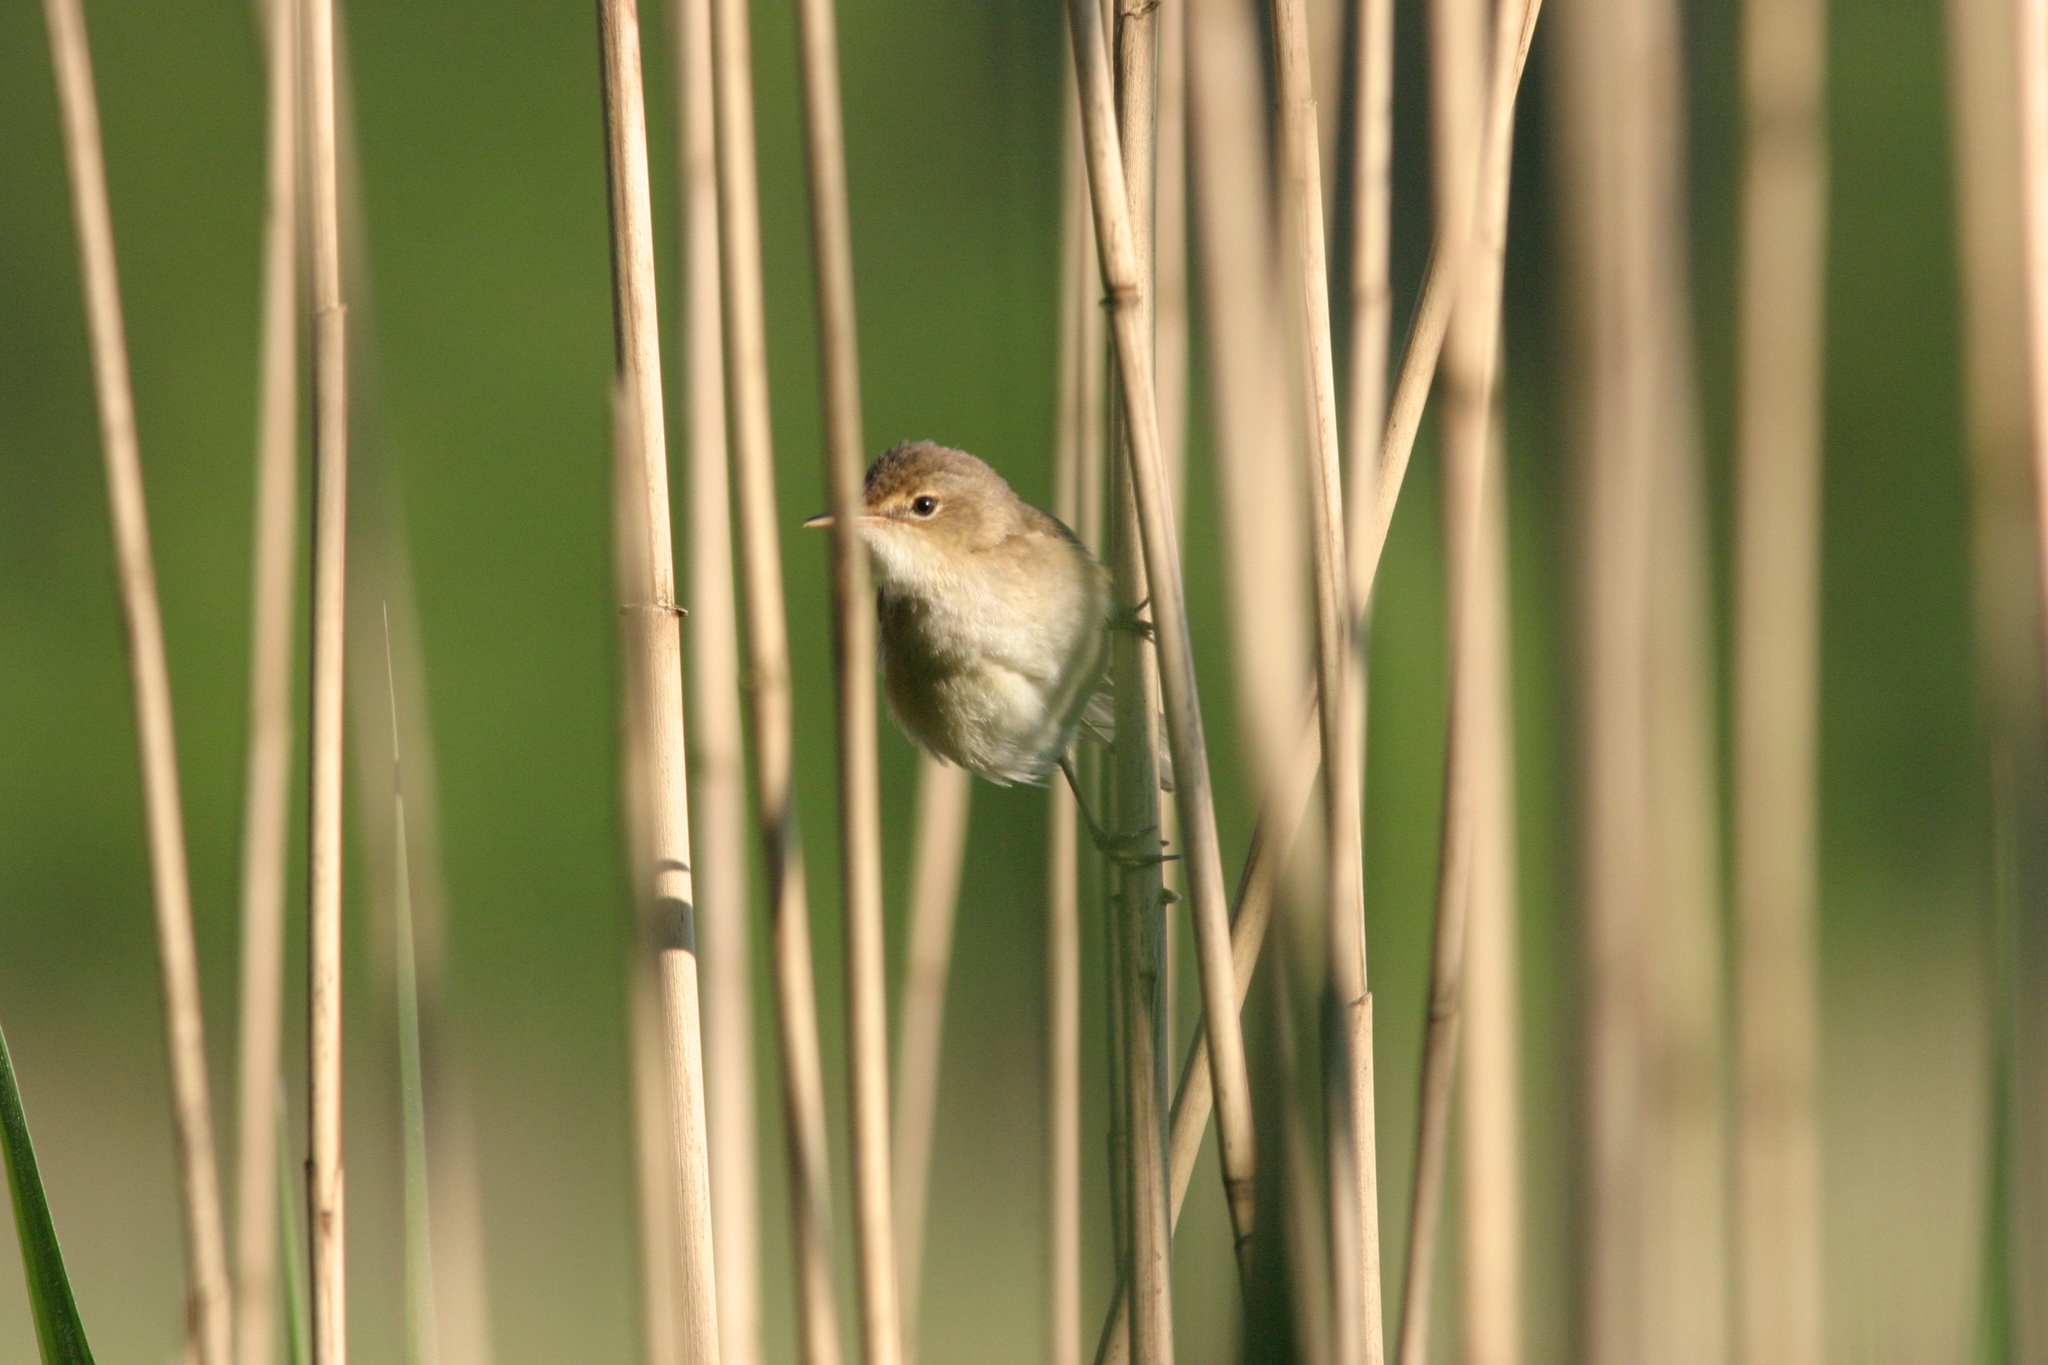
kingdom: Animalia
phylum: Chordata
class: Aves
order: Passeriformes
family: Acrocephalidae
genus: Acrocephalus
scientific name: Acrocephalus scirpaceus
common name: Eurasian reed warbler
